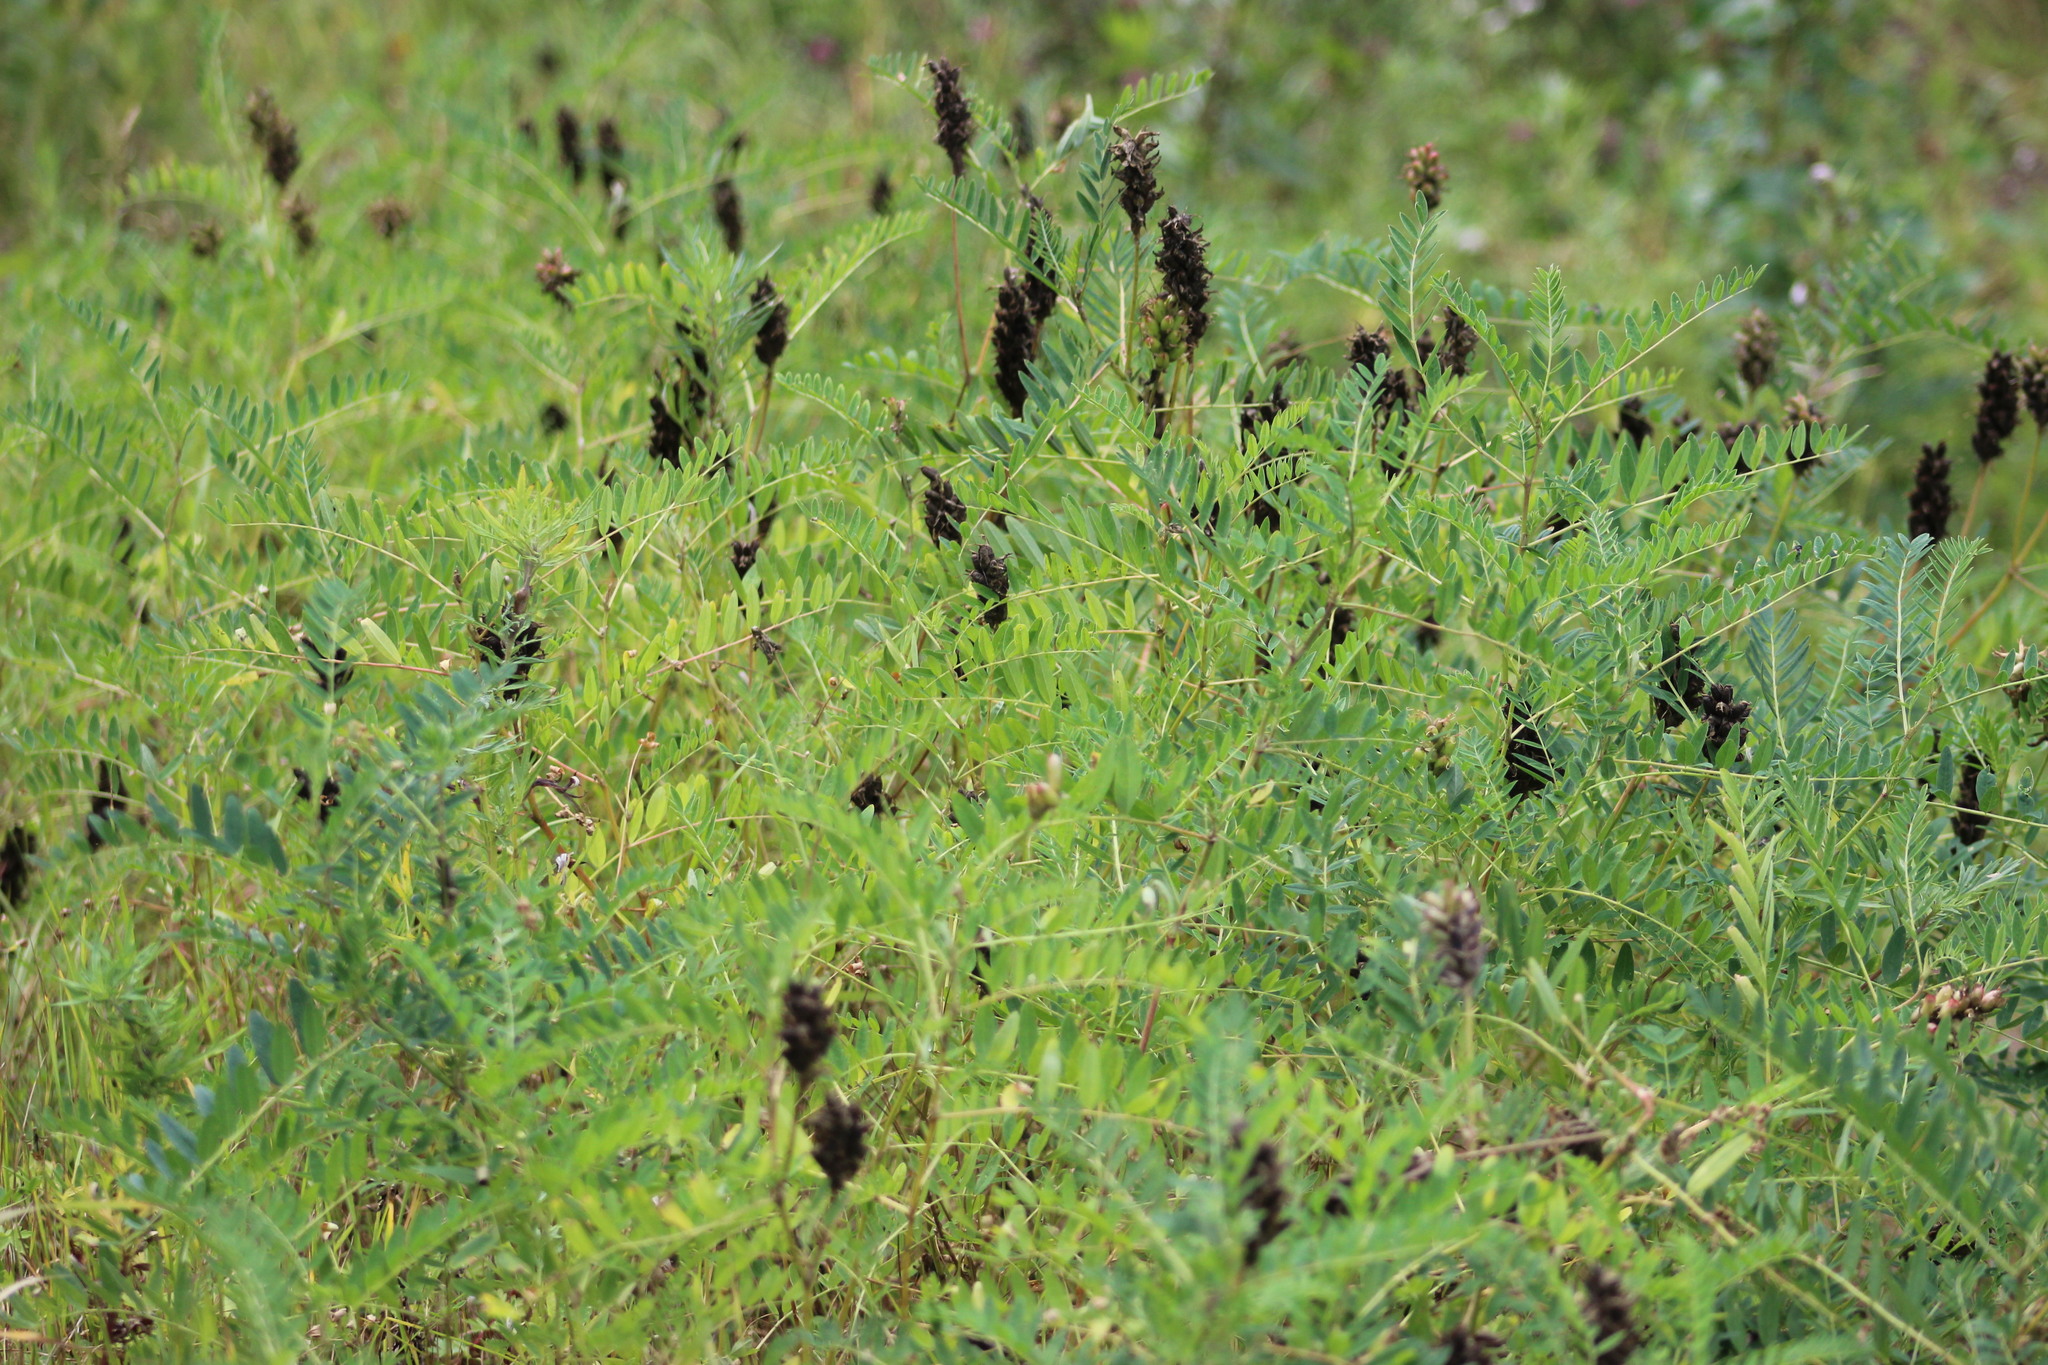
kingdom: Plantae
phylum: Tracheophyta
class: Magnoliopsida
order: Fabales
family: Fabaceae
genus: Astragalus
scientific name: Astragalus uliginosus
